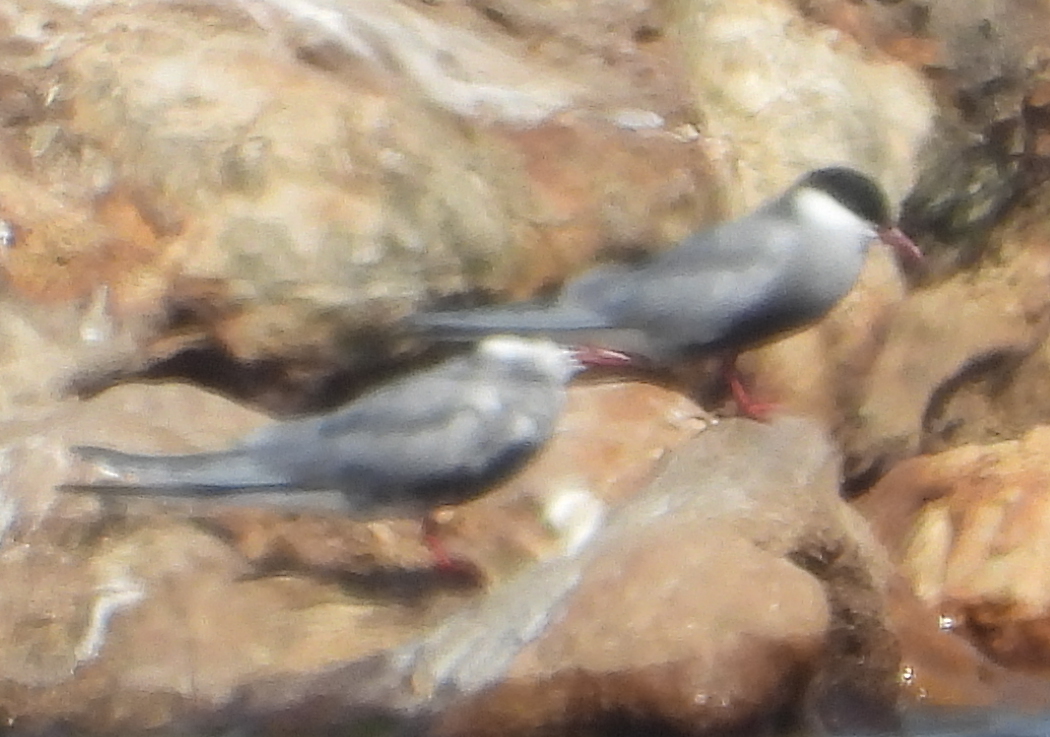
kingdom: Animalia
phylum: Chordata
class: Aves
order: Charadriiformes
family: Laridae
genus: Chlidonias
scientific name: Chlidonias hybrida
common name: Whiskered tern
